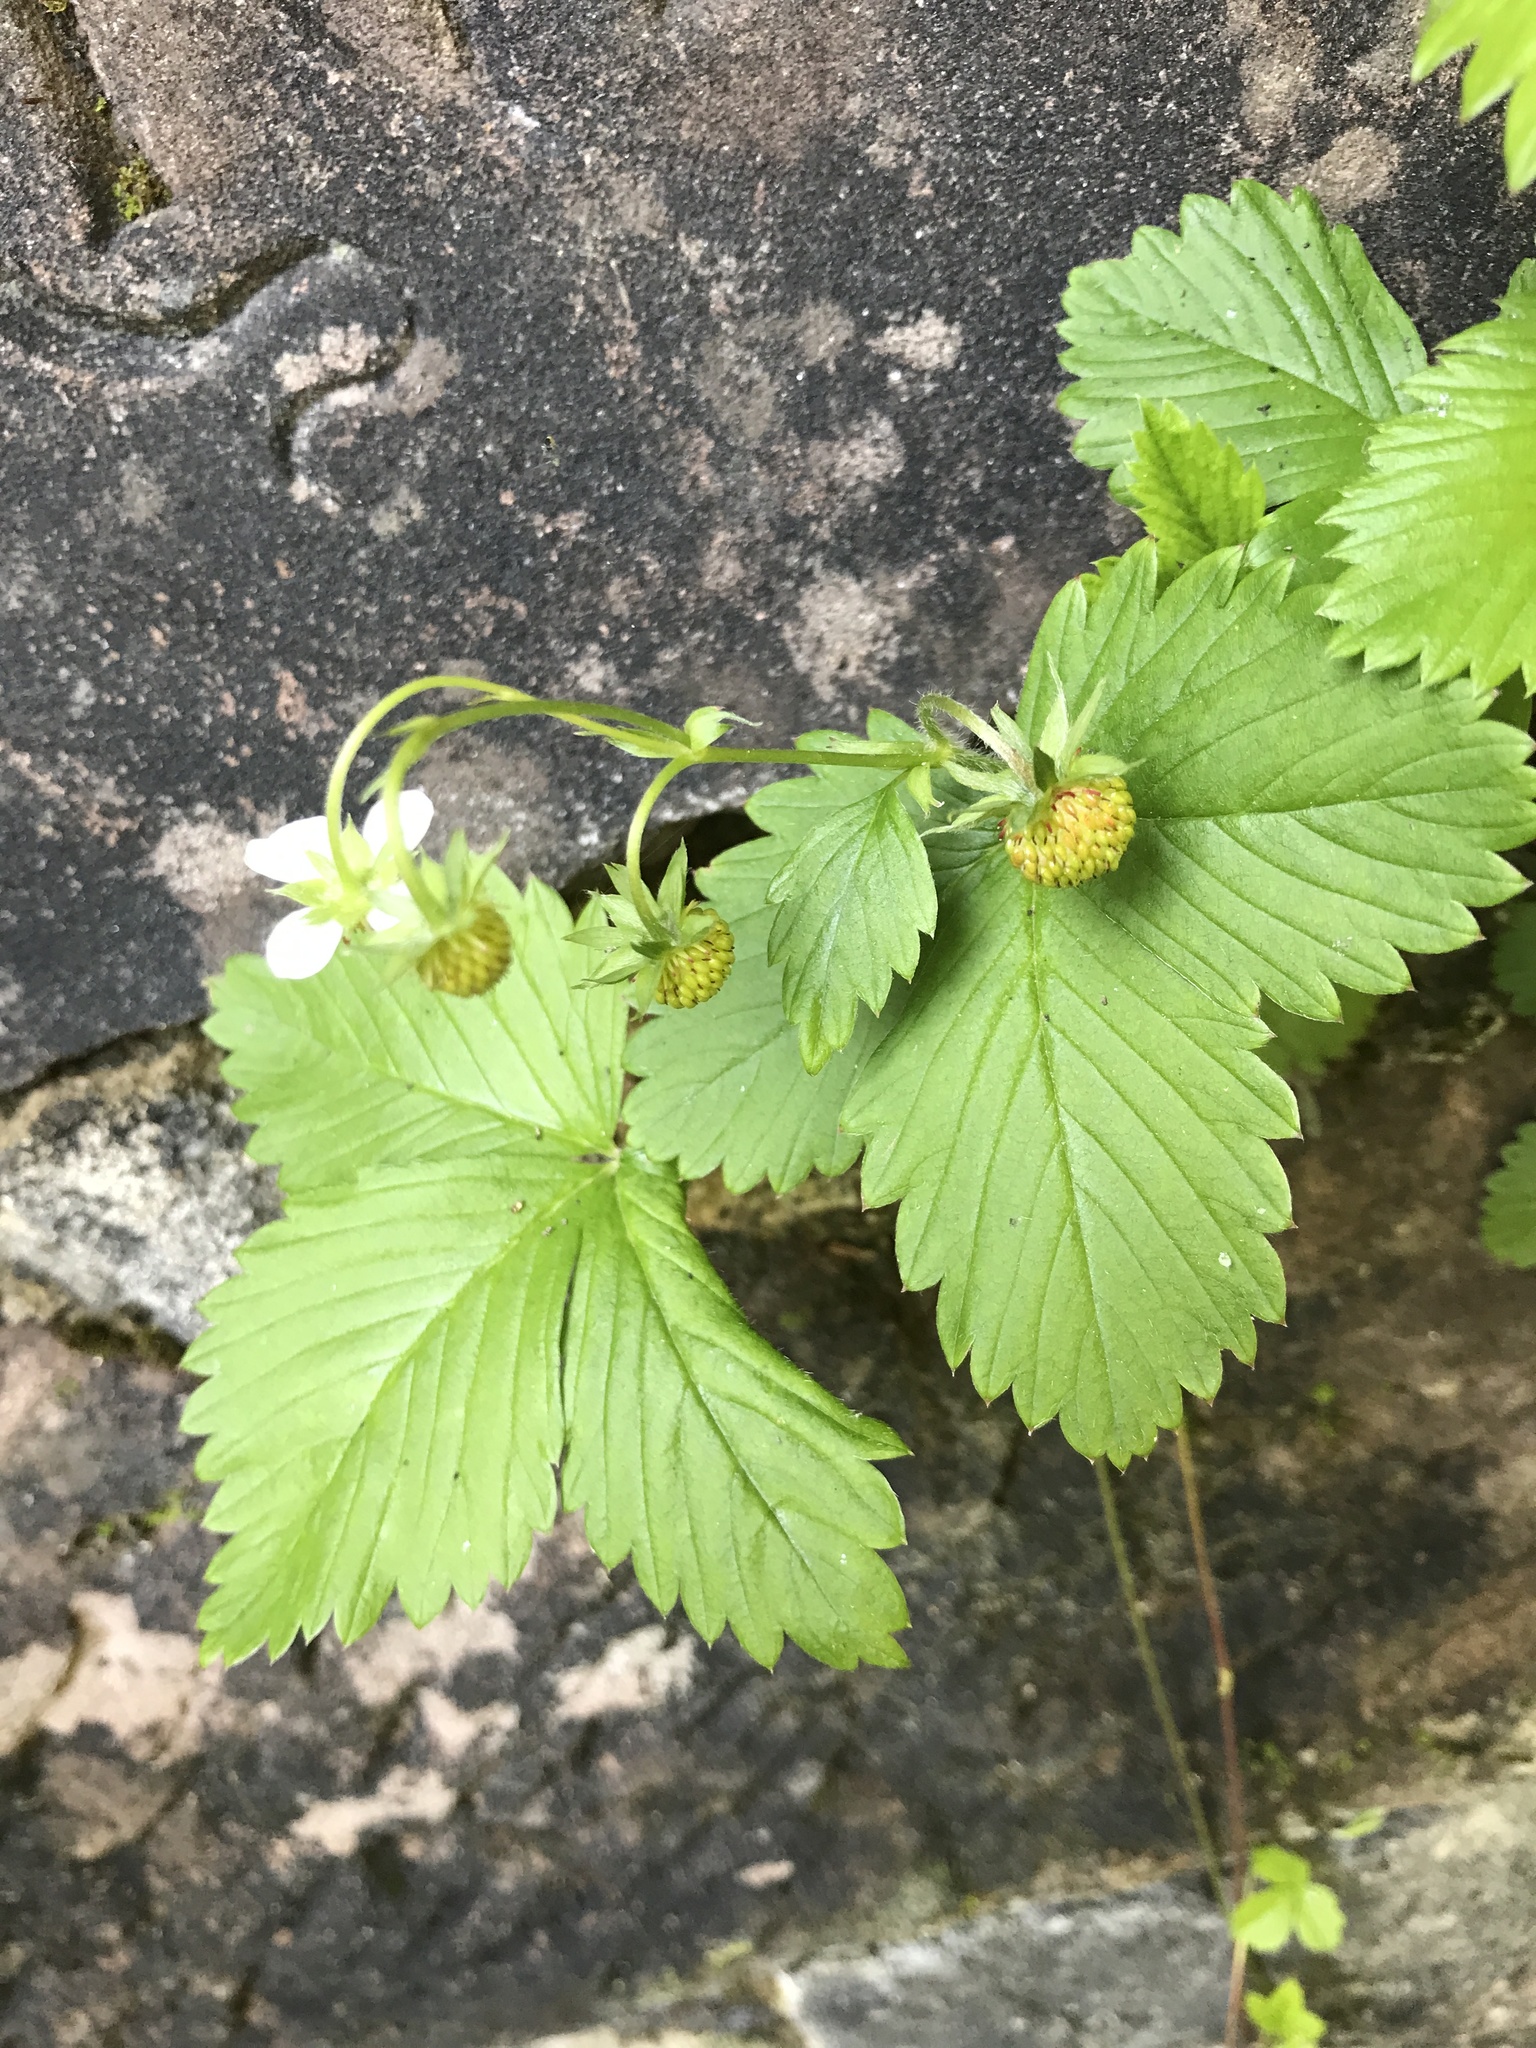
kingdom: Plantae
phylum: Tracheophyta
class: Magnoliopsida
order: Rosales
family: Rosaceae
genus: Fragaria
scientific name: Fragaria vesca
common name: Wild strawberry
